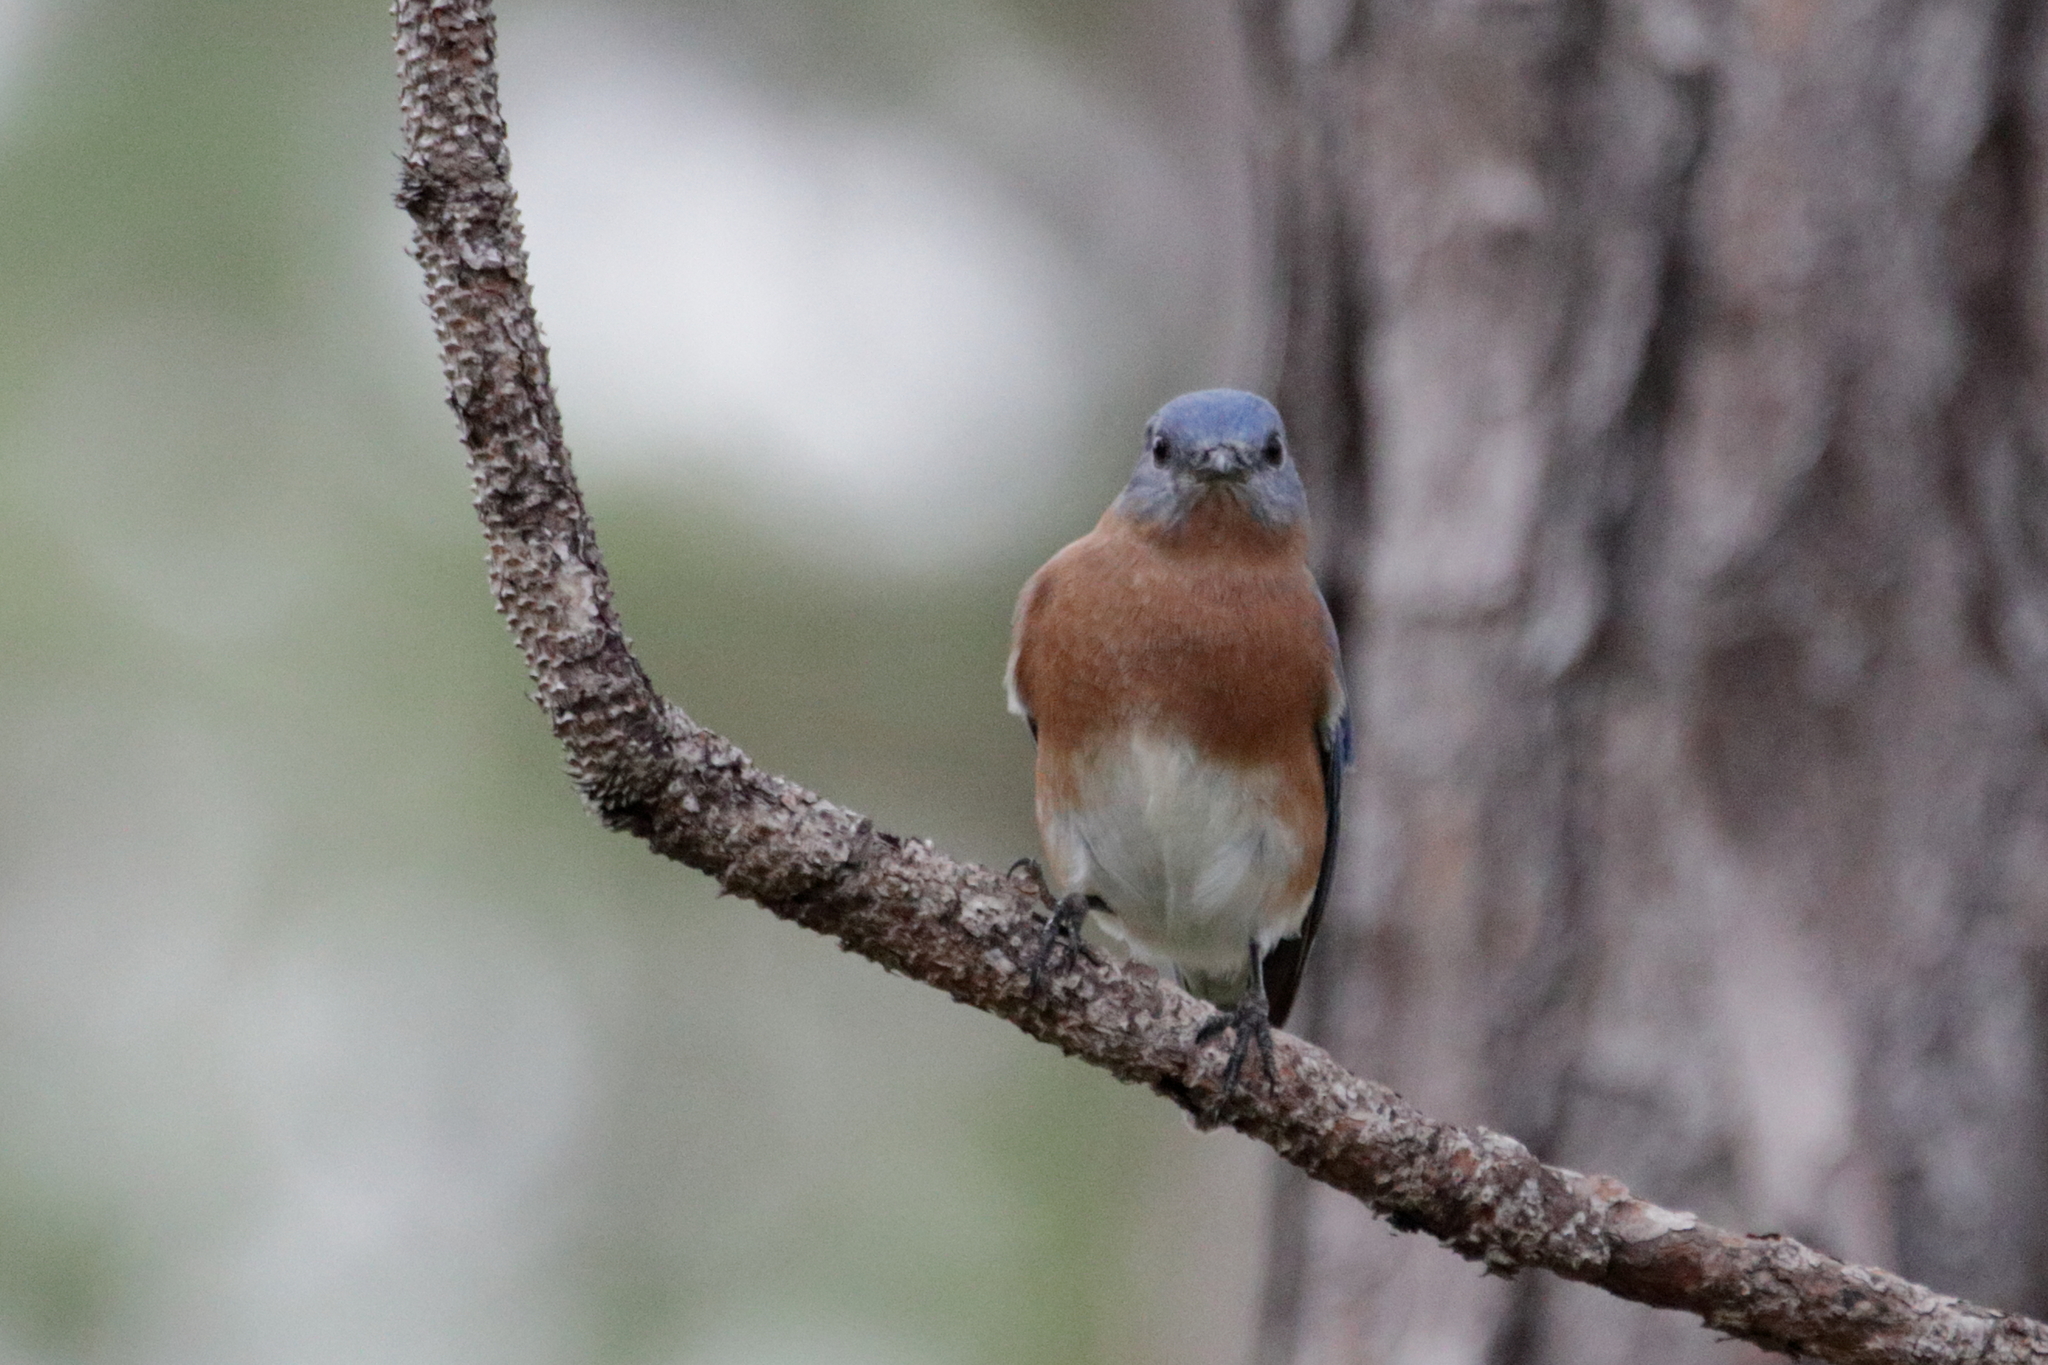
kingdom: Animalia
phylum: Chordata
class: Aves
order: Passeriformes
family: Turdidae
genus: Sialia
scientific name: Sialia sialis
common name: Eastern bluebird
